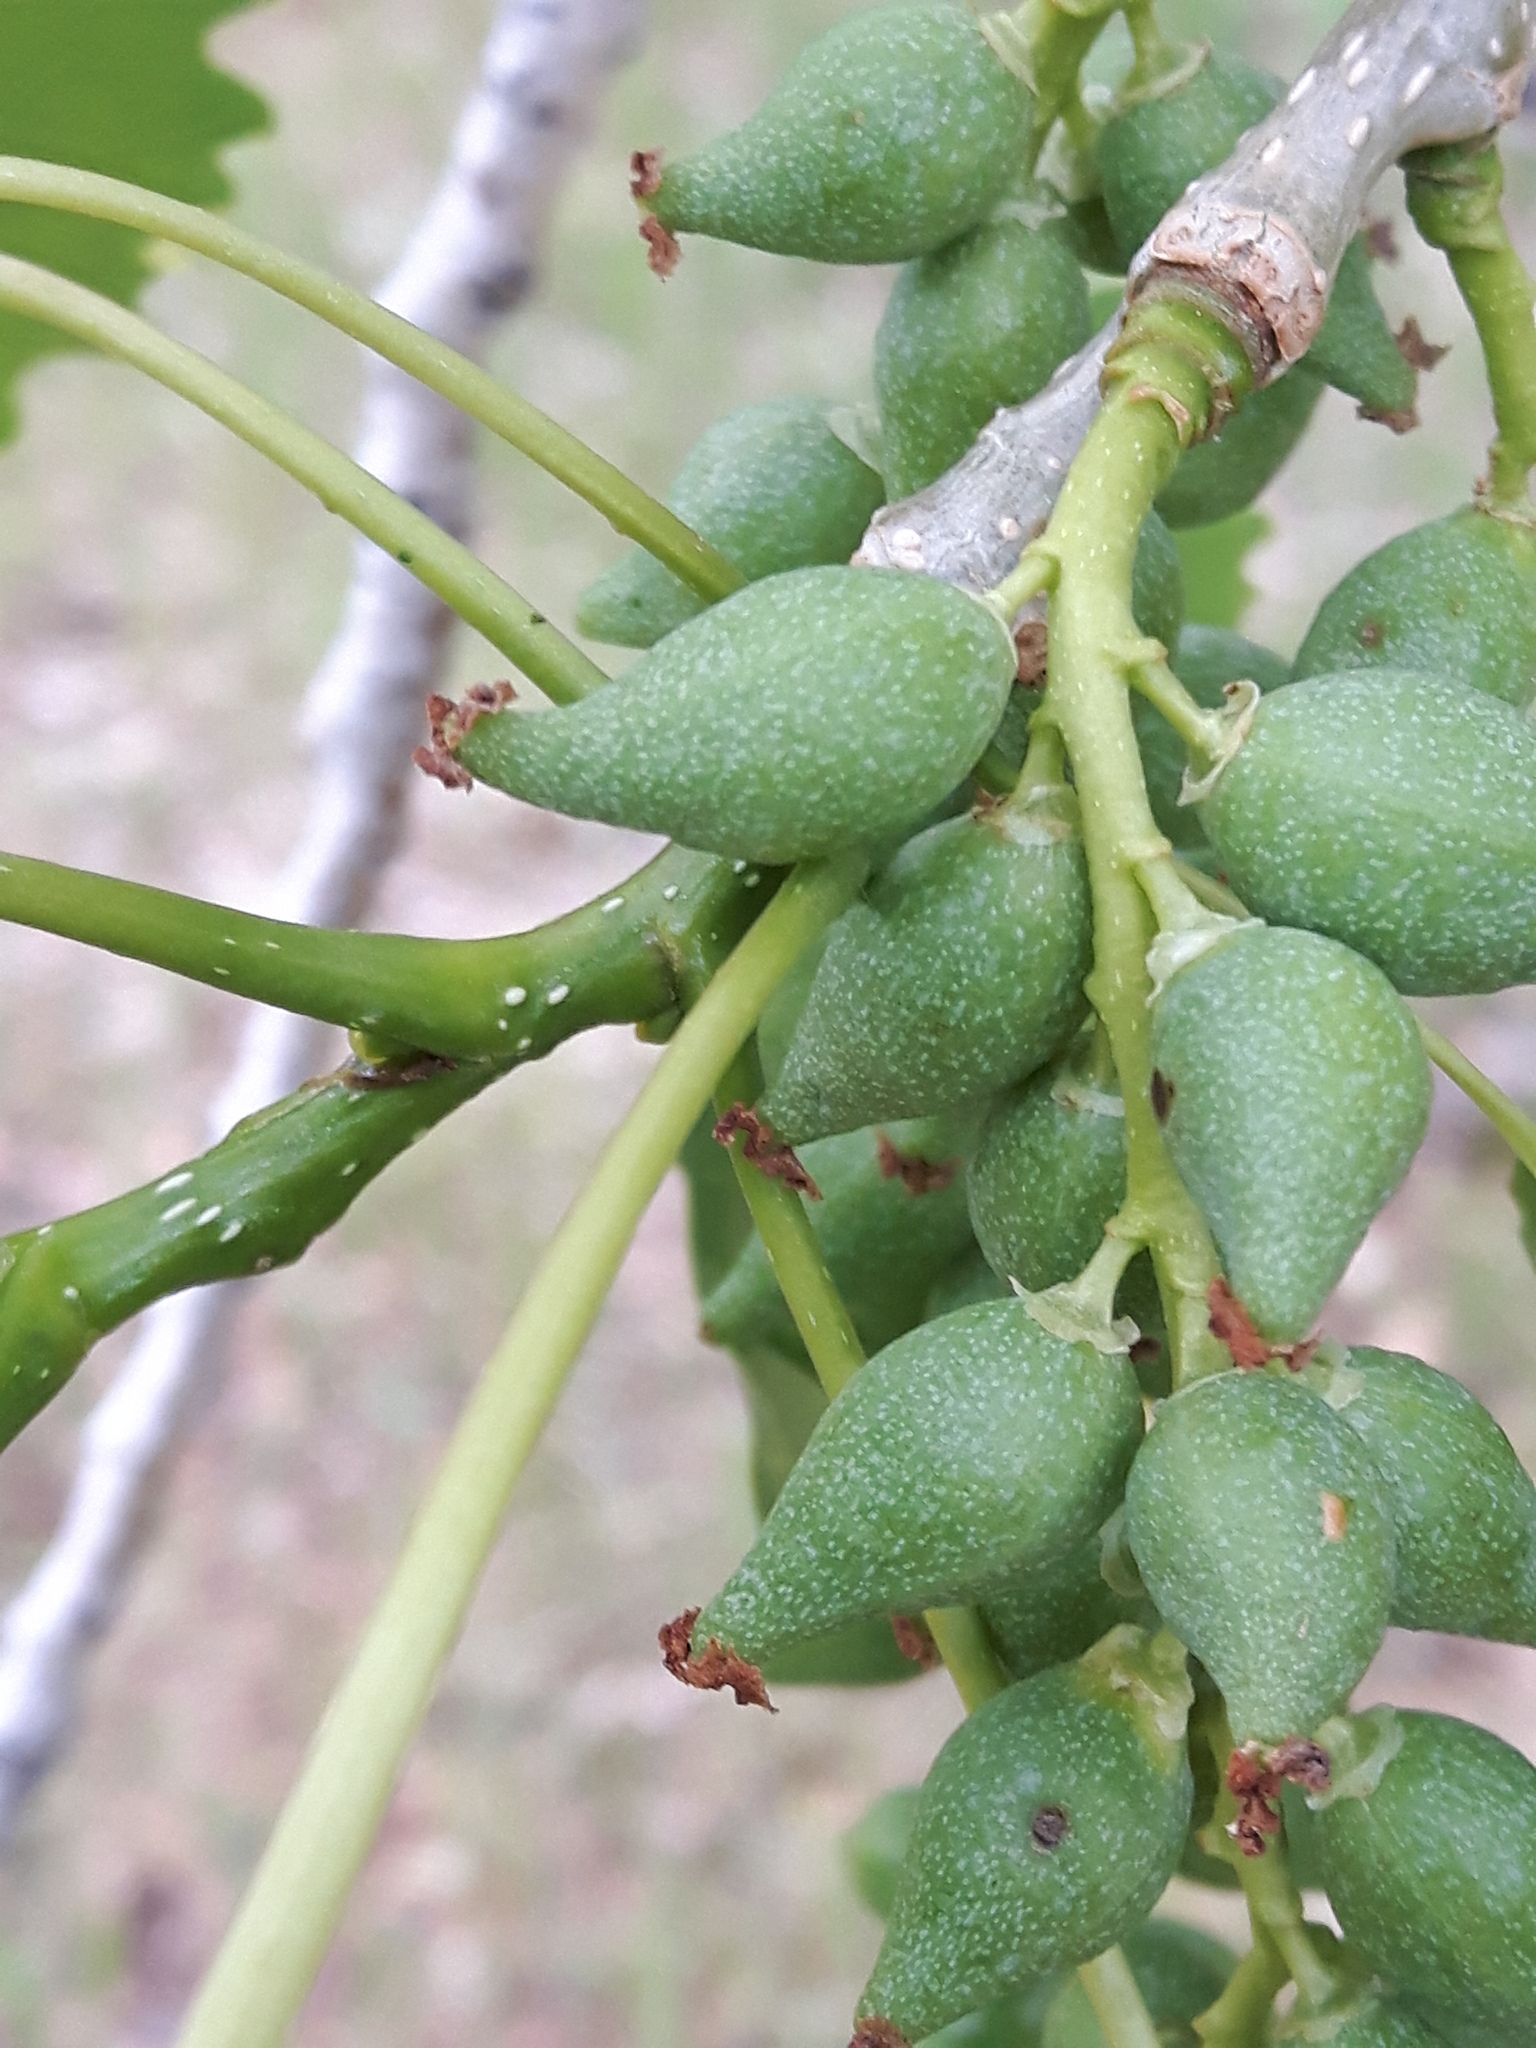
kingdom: Plantae
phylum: Tracheophyta
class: Magnoliopsida
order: Malpighiales
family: Salicaceae
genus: Populus
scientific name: Populus deltoides
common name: Eastern cottonwood
